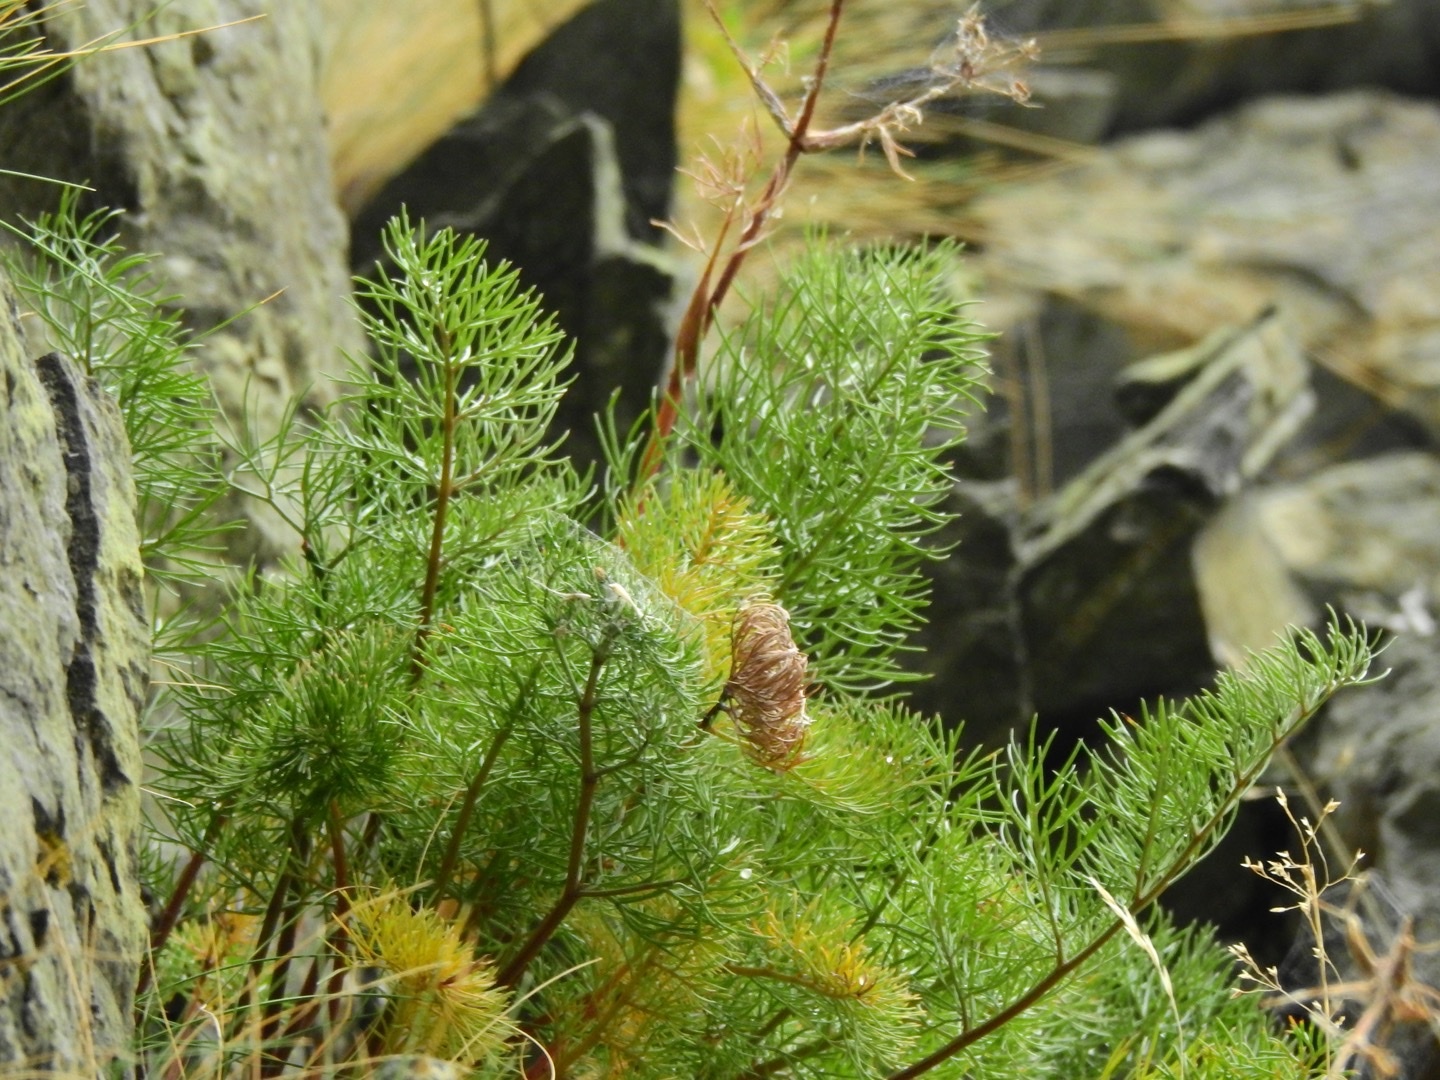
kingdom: Plantae
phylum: Tracheophyta
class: Magnoliopsida
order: Apiales
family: Apiaceae
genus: Anisotome
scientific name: Anisotome cauticola
